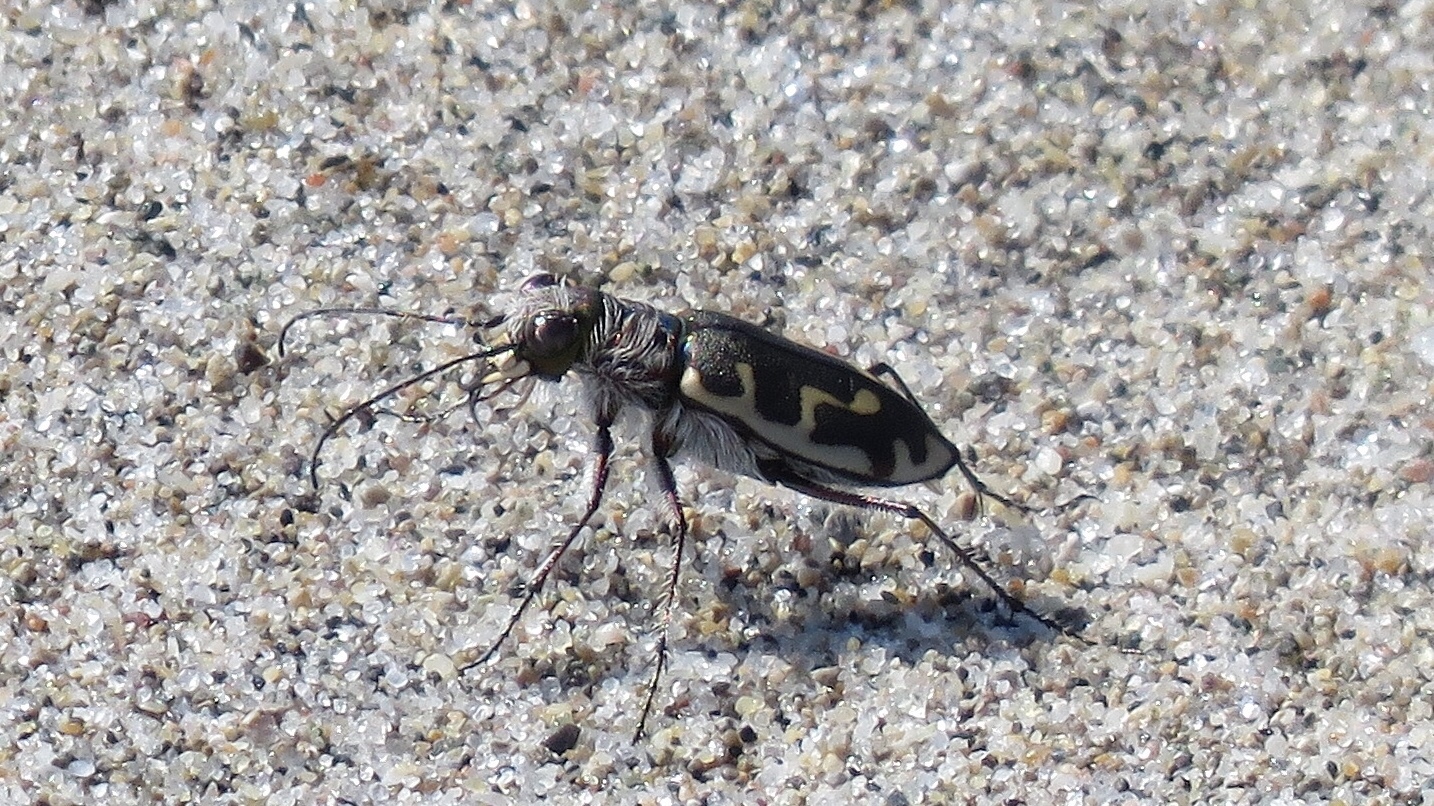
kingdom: Animalia
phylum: Arthropoda
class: Insecta
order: Coleoptera
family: Carabidae
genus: Cicindela
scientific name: Cicindela hirticollis
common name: Hairy-necked tiger beetle
